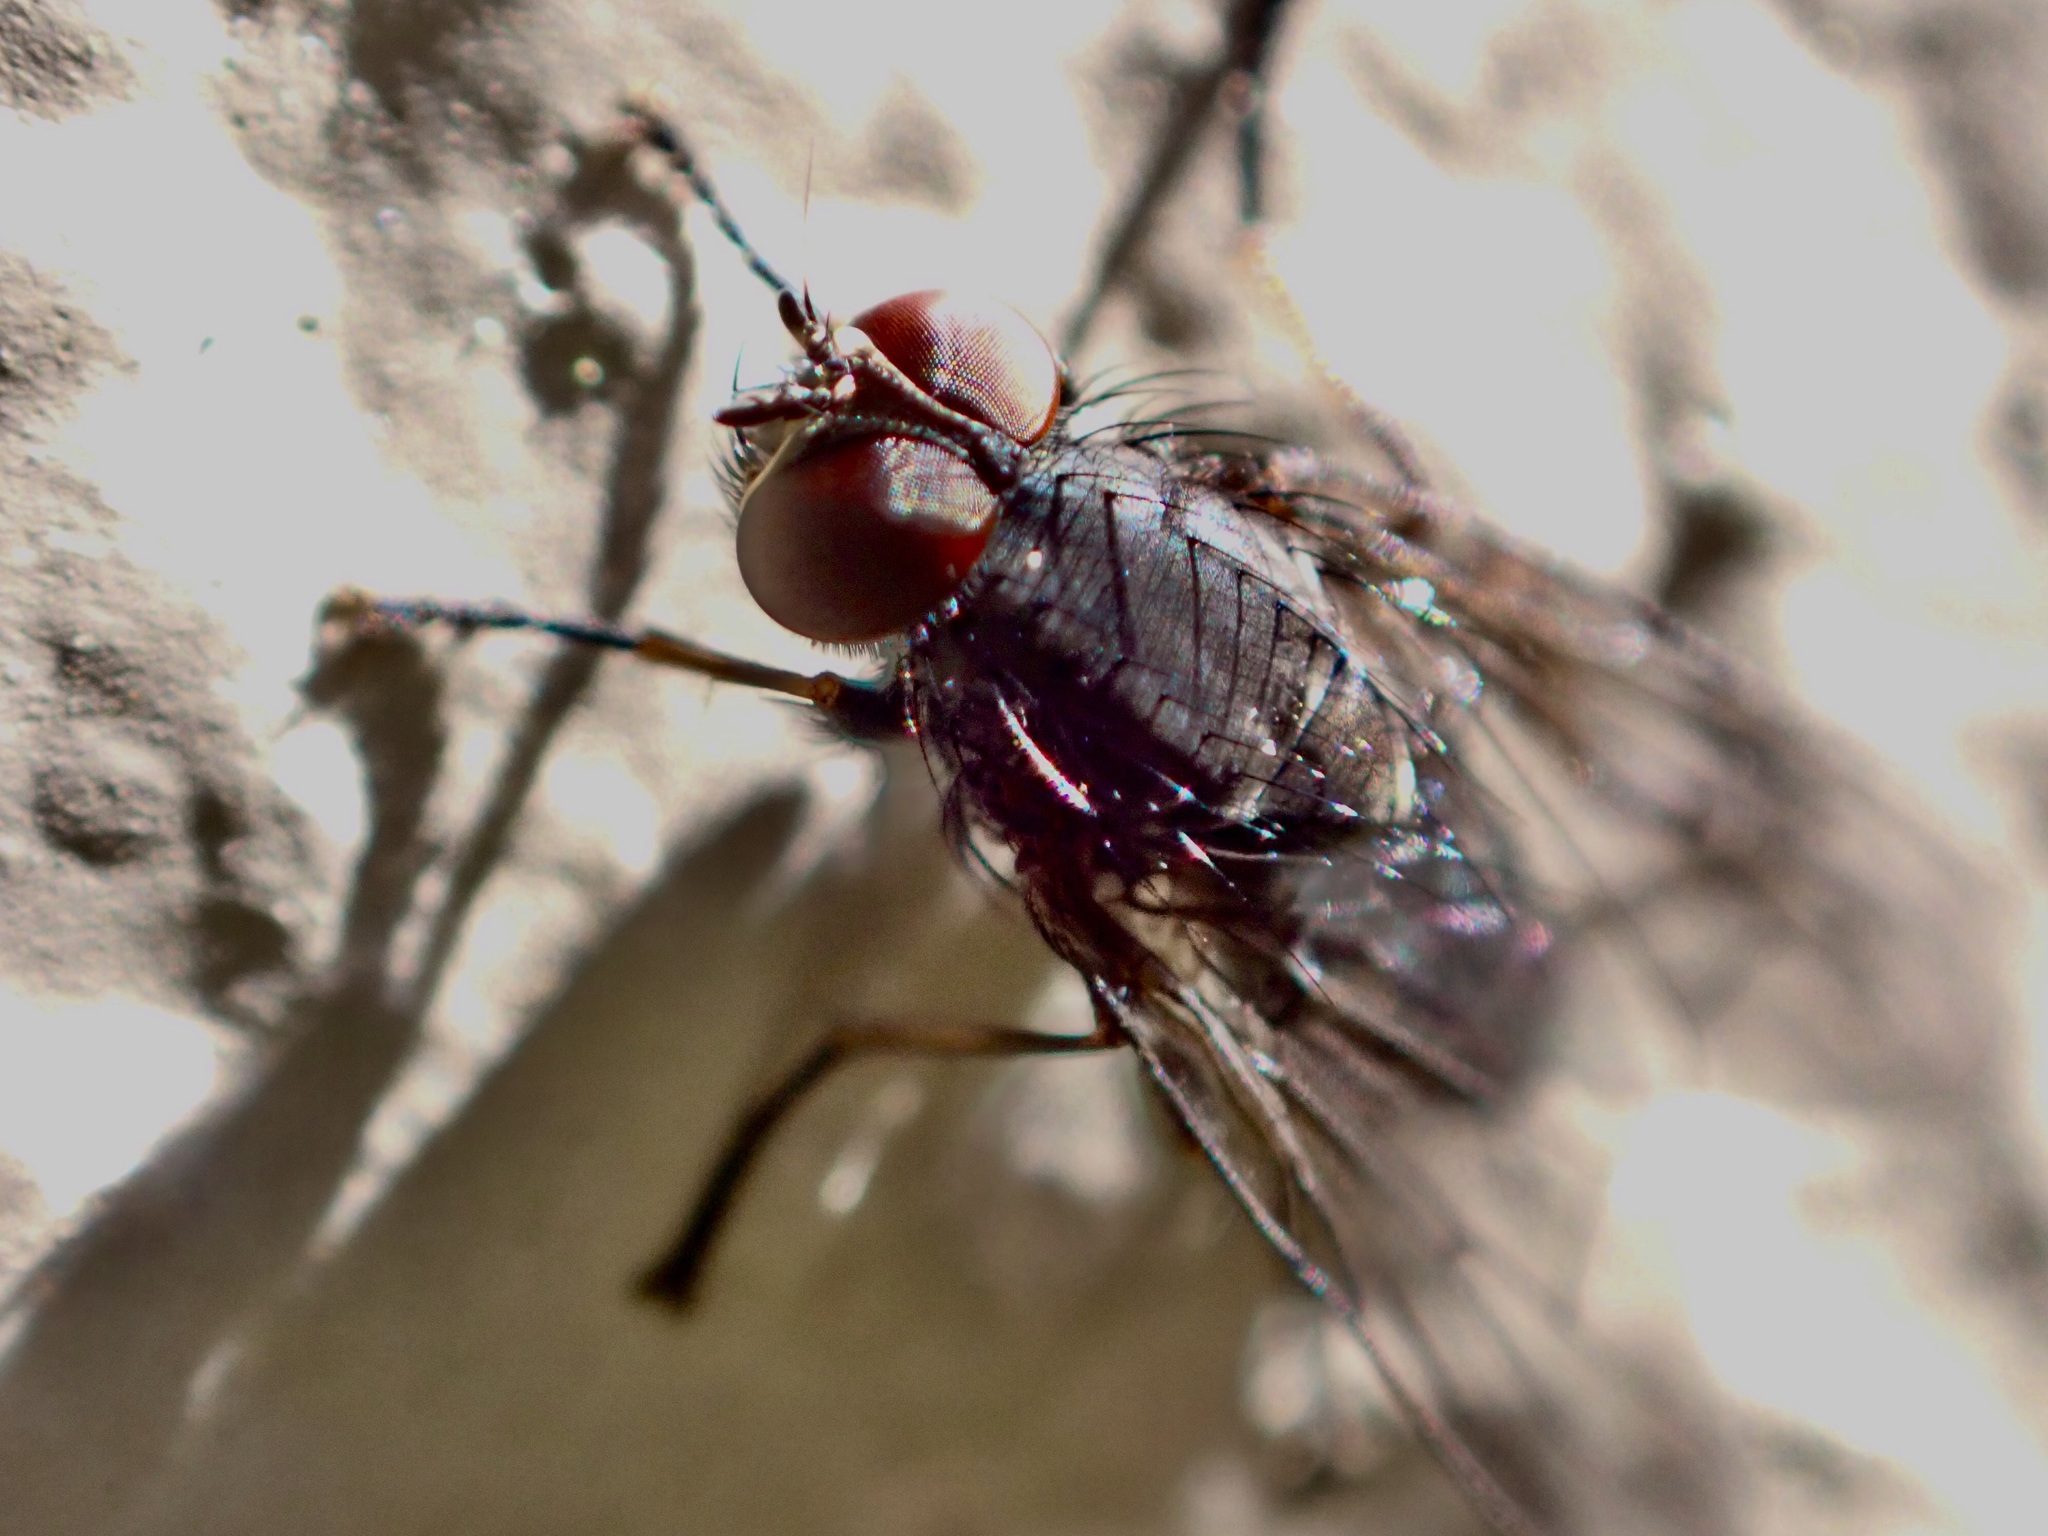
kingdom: Animalia
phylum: Arthropoda
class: Insecta
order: Diptera
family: Muscidae
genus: Muscina
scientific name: Muscina stabulans
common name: False stable fly
